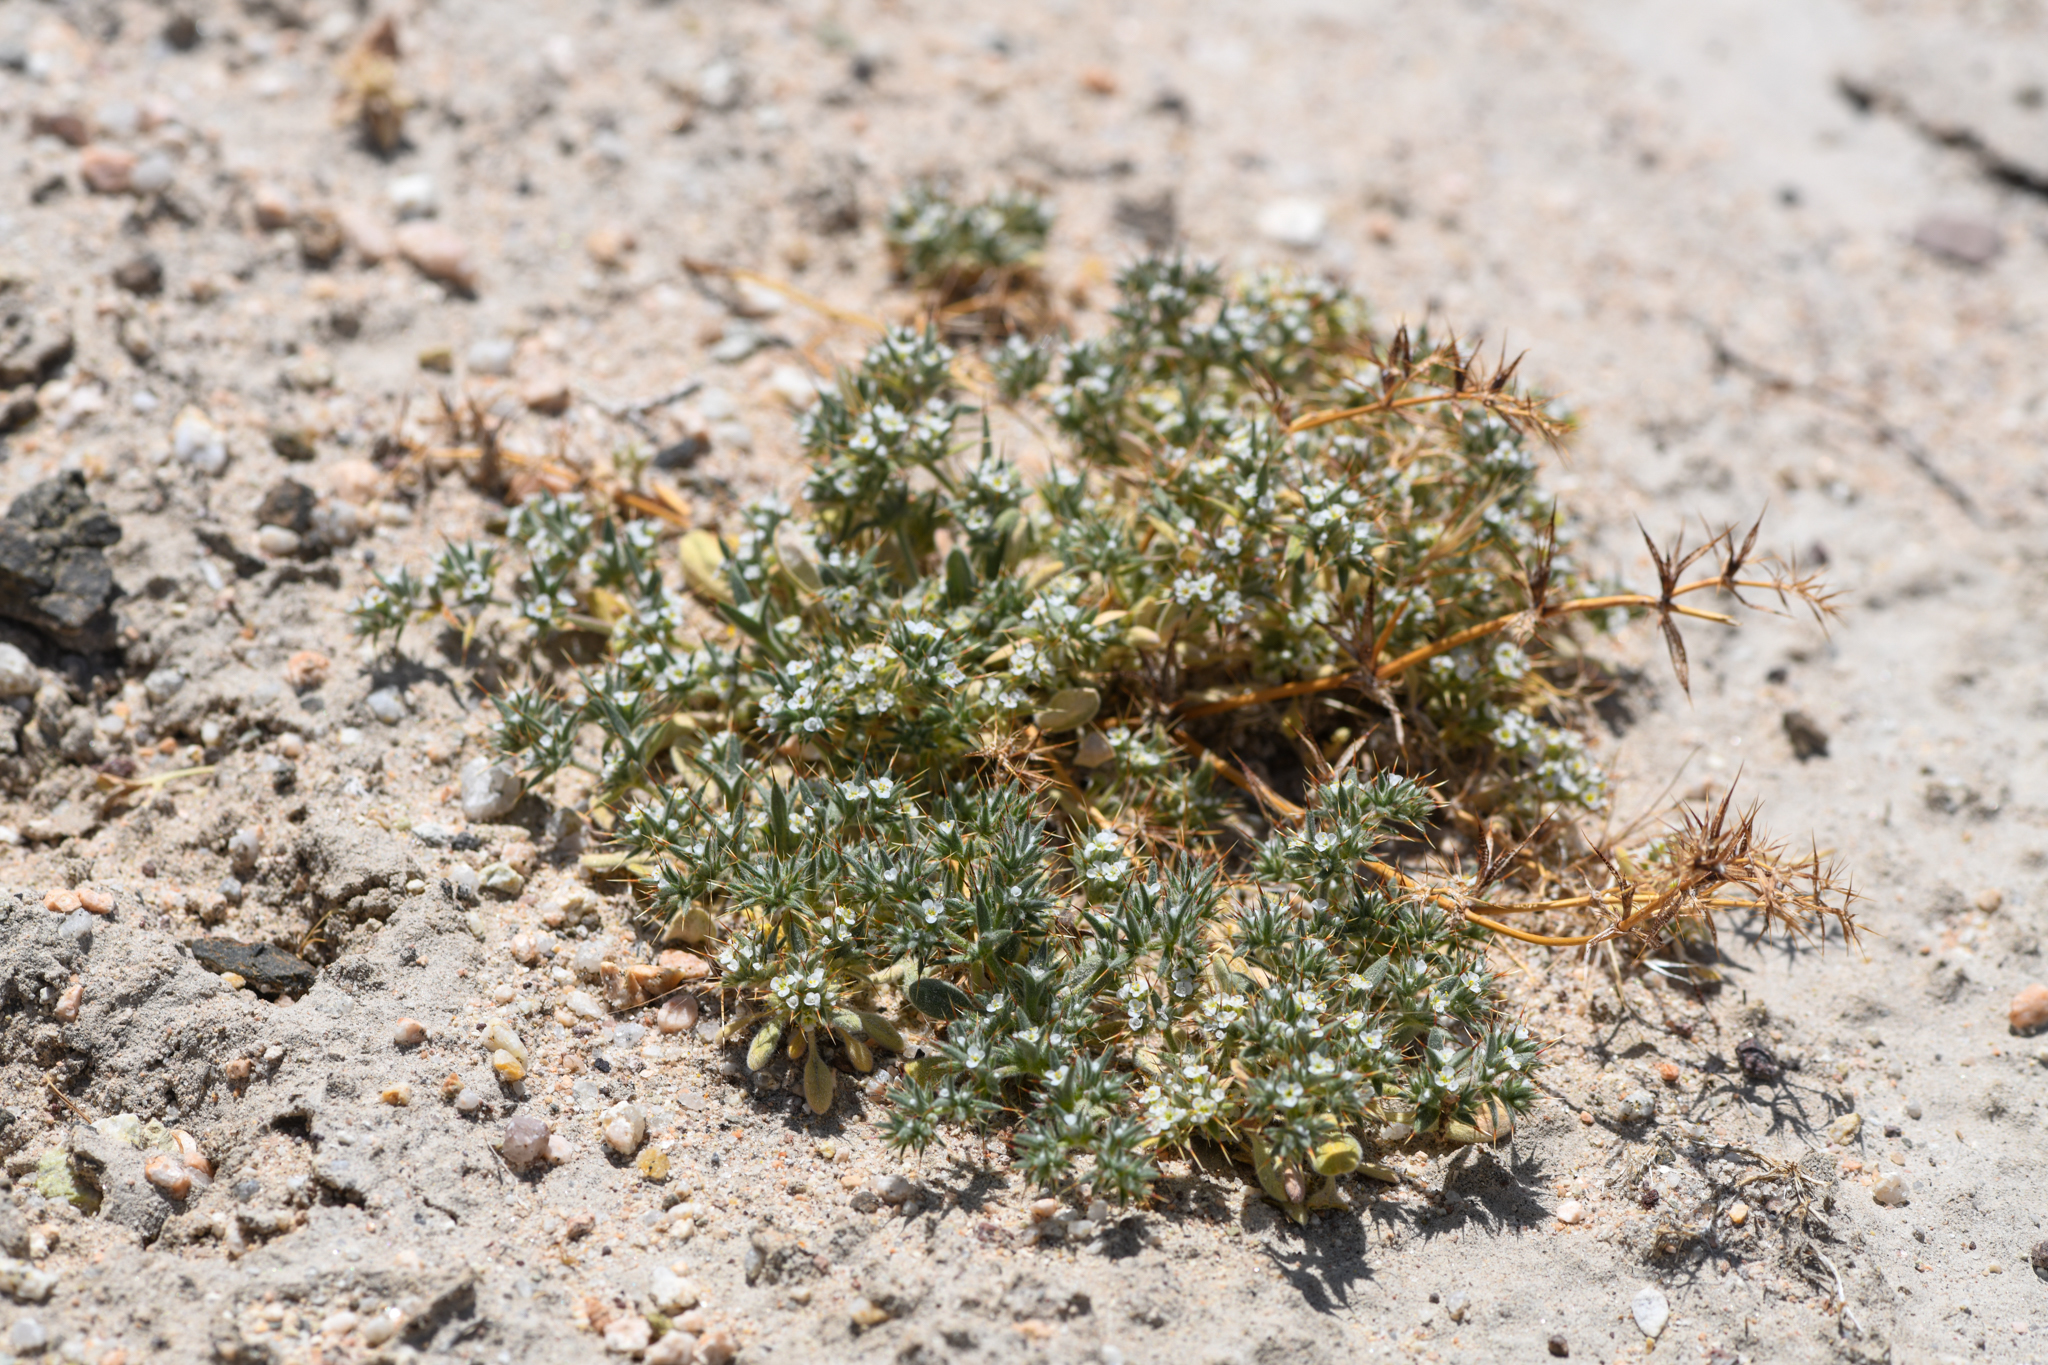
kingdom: Plantae
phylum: Tracheophyta
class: Magnoliopsida
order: Caryophyllales
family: Polygonaceae
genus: Chorizanthe
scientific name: Chorizanthe spinosa
